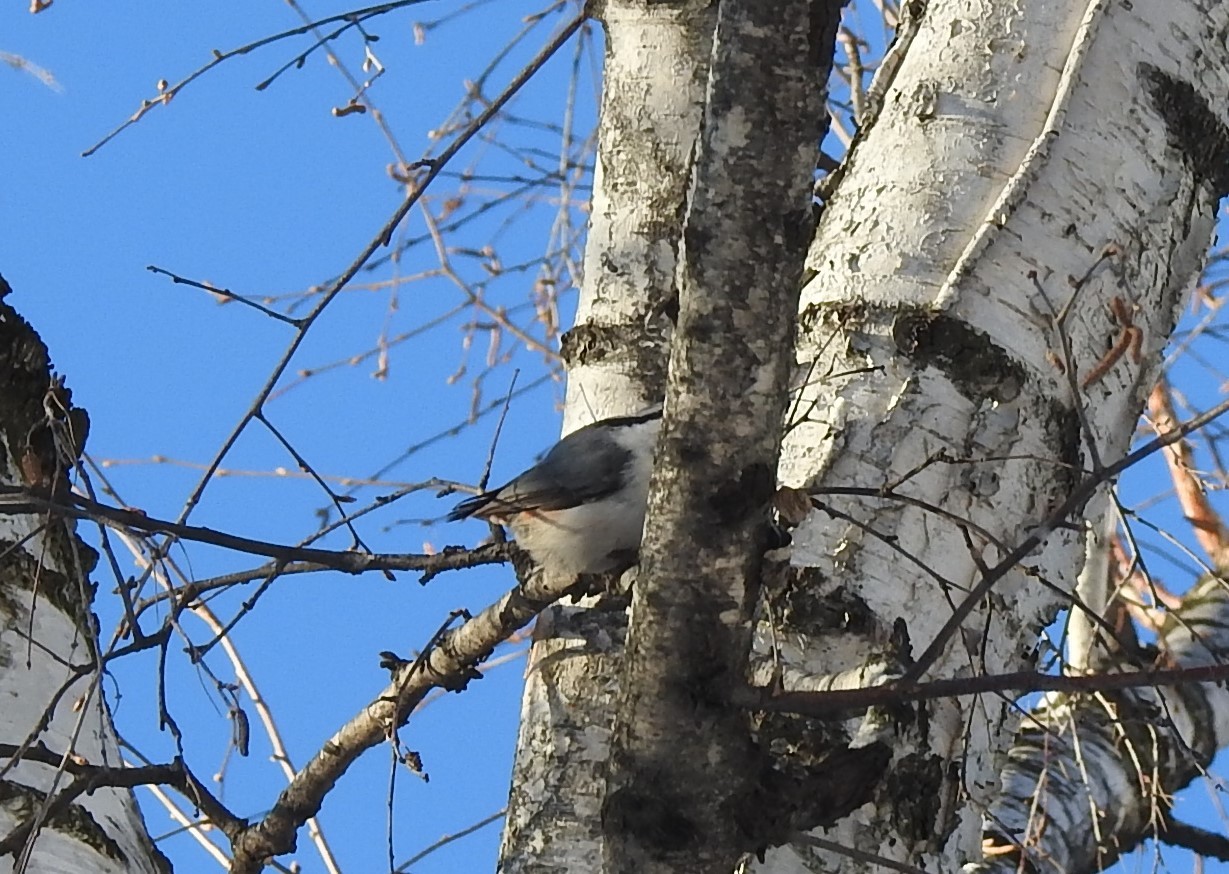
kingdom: Animalia
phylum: Chordata
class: Aves
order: Passeriformes
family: Sittidae
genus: Sitta
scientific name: Sitta europaea
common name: Eurasian nuthatch
